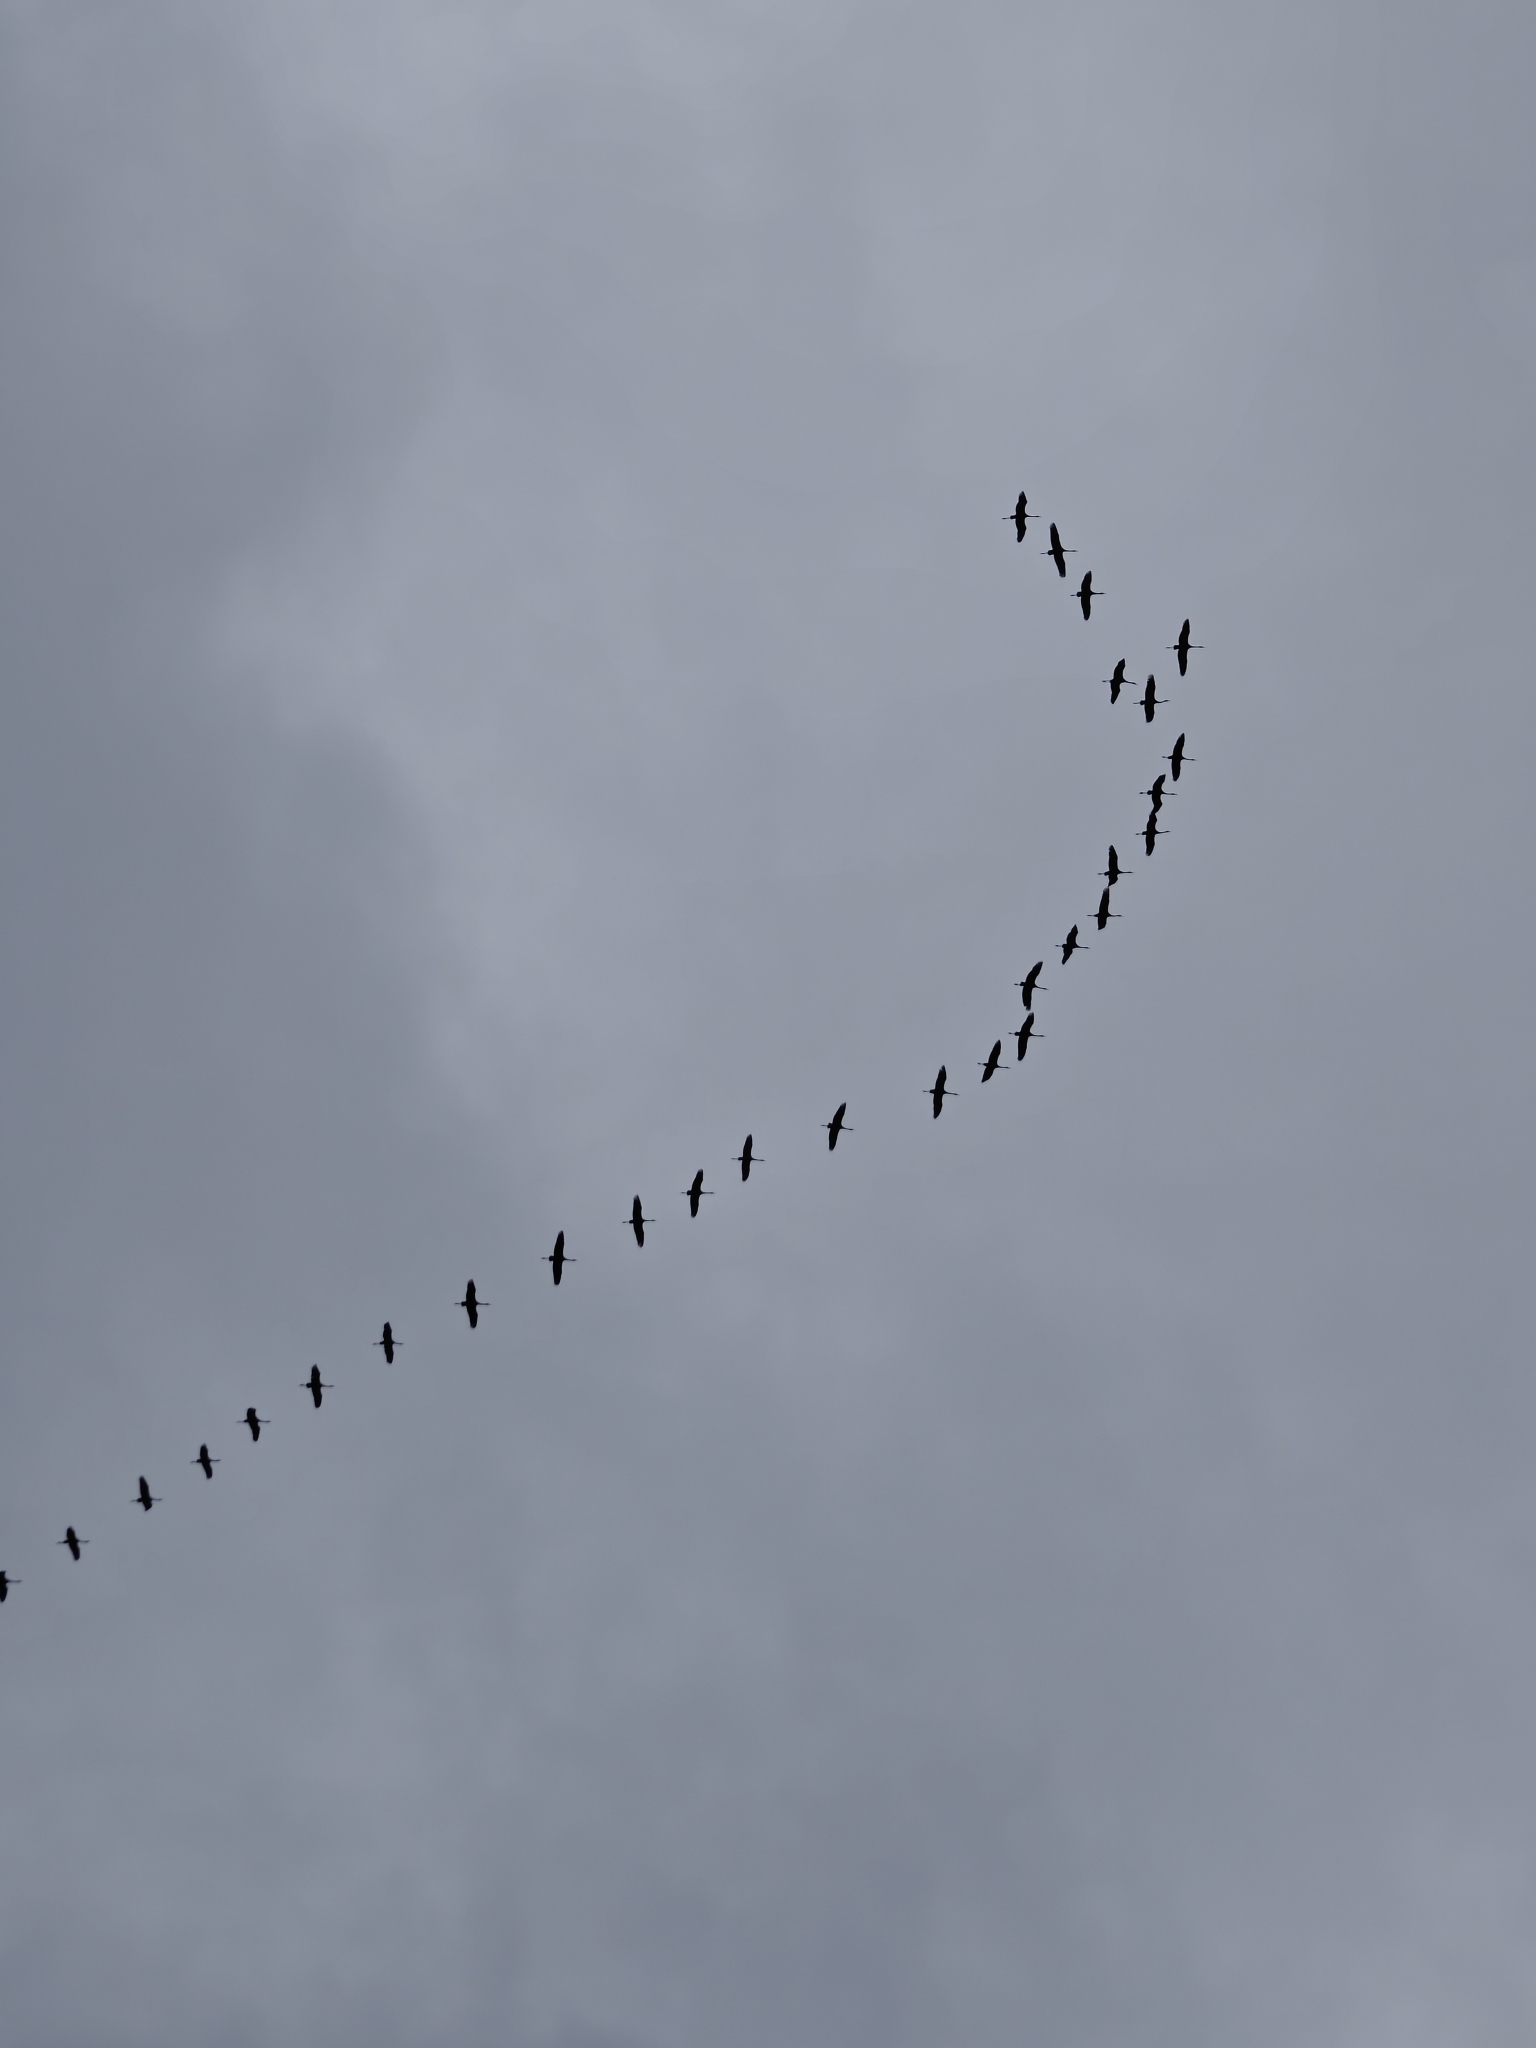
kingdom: Animalia
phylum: Chordata
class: Aves
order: Gruiformes
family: Gruidae
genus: Grus
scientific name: Grus grus
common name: Common crane
